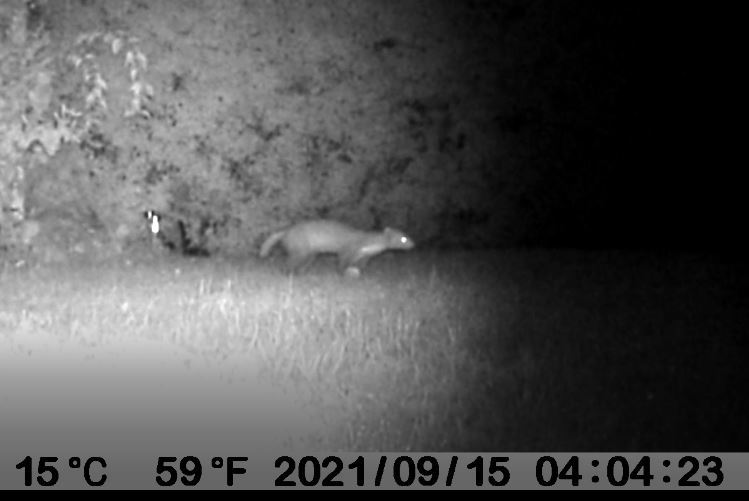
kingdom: Animalia
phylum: Chordata
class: Mammalia
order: Carnivora
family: Mustelidae
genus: Martes
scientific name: Martes foina
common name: Beech marten
